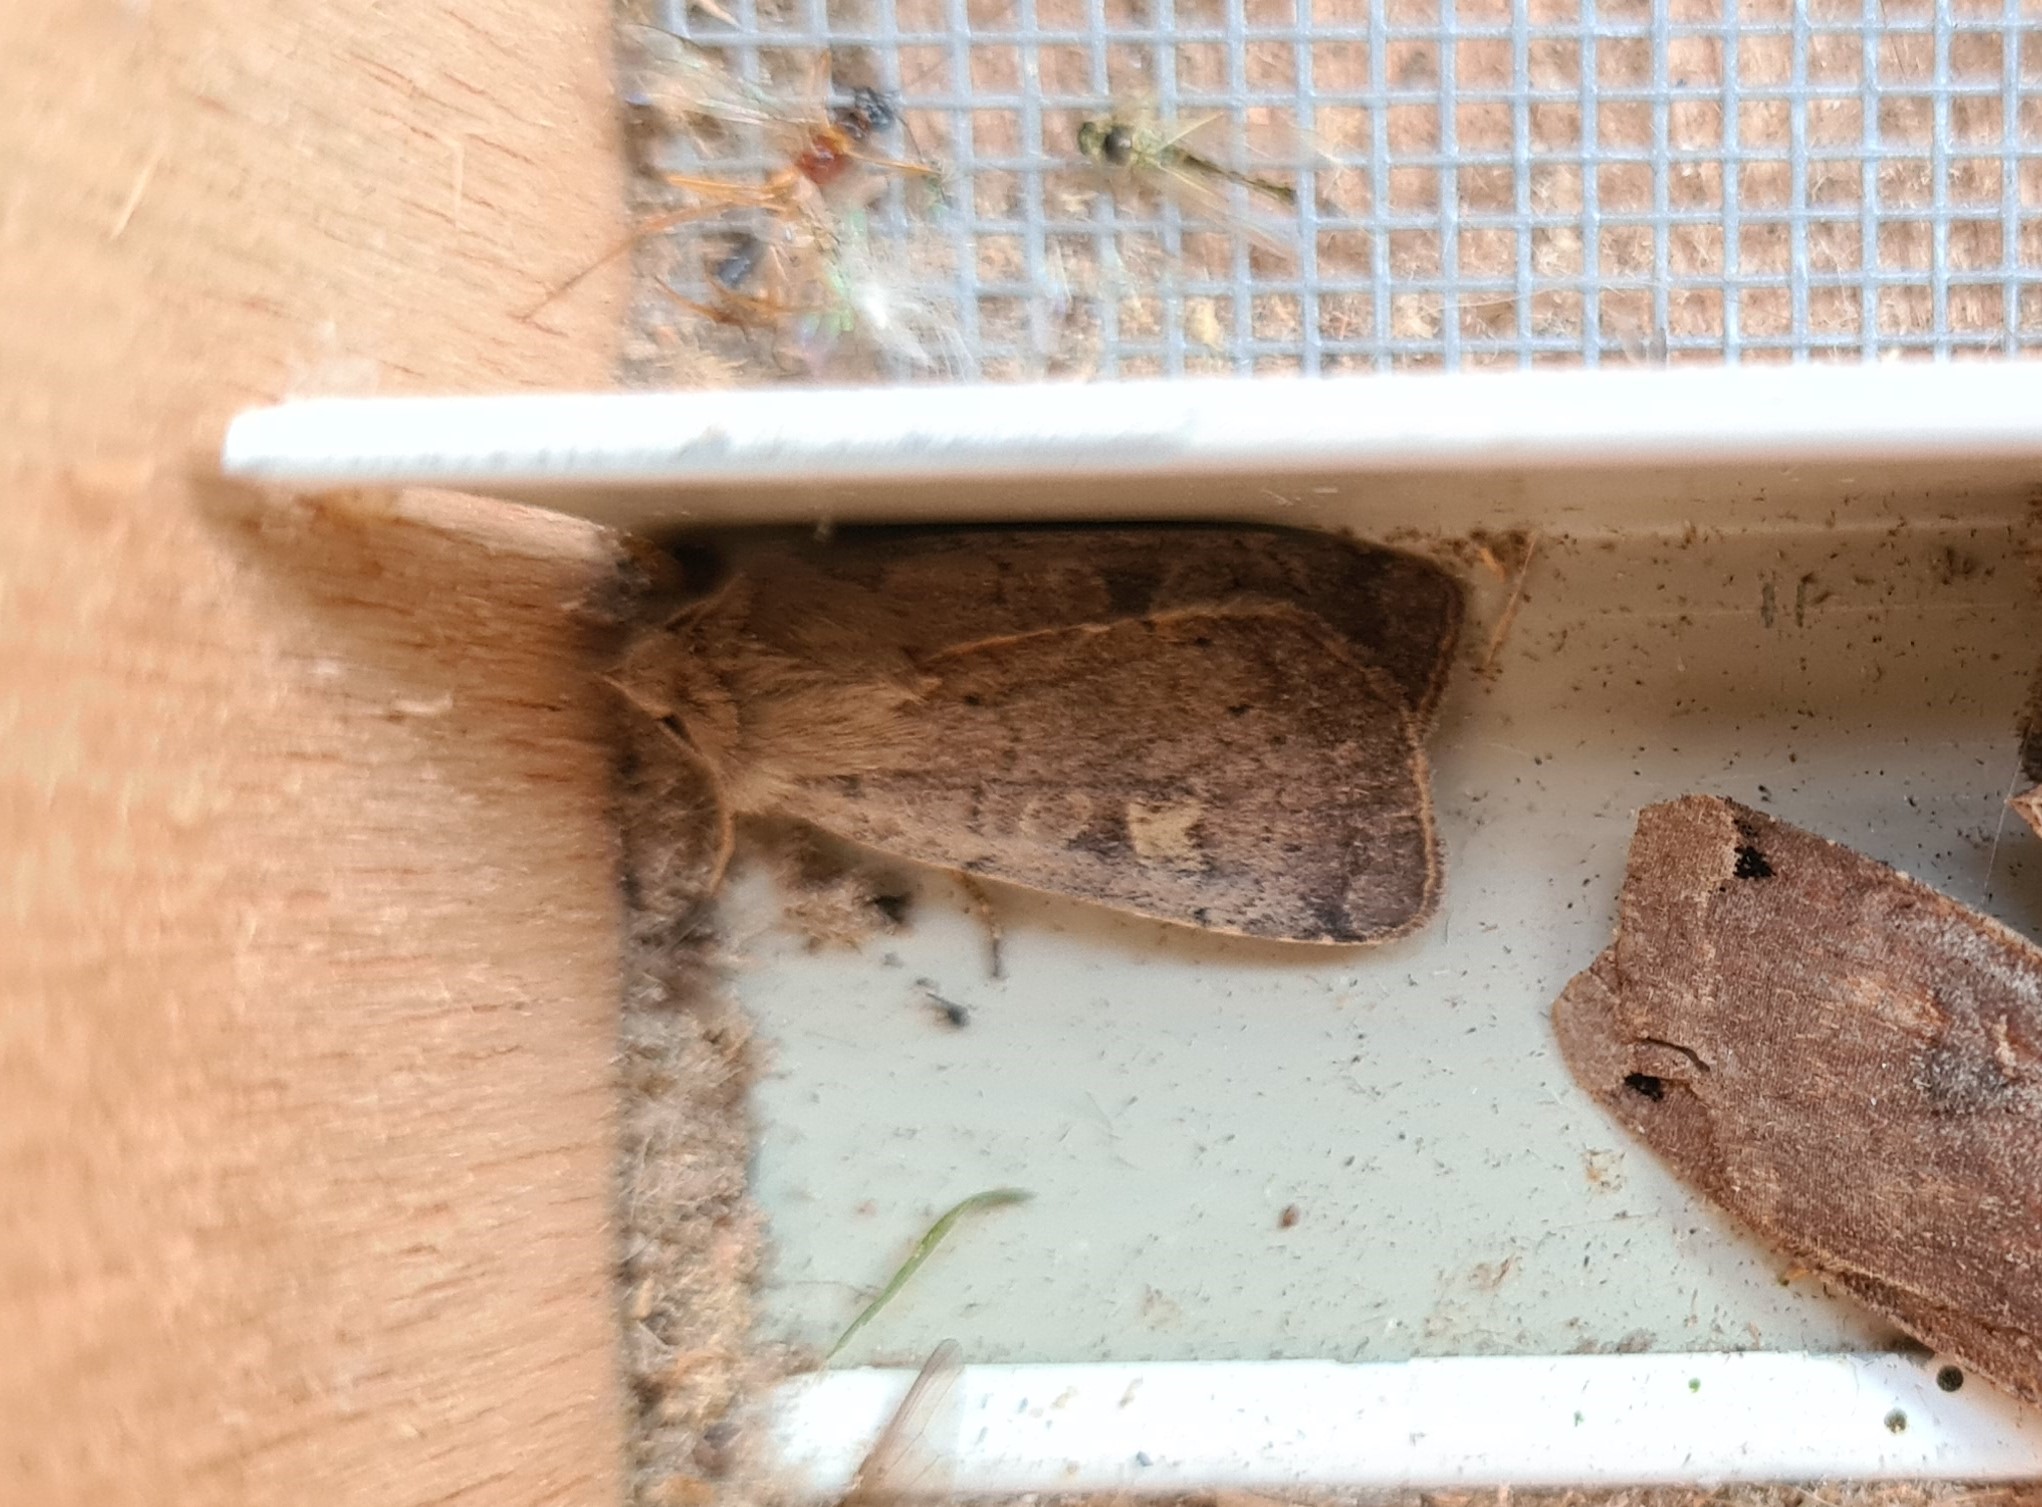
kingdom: Animalia
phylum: Arthropoda
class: Insecta
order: Lepidoptera
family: Noctuidae
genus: Xestia
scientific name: Xestia xanthographa
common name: Square-spot rustic
